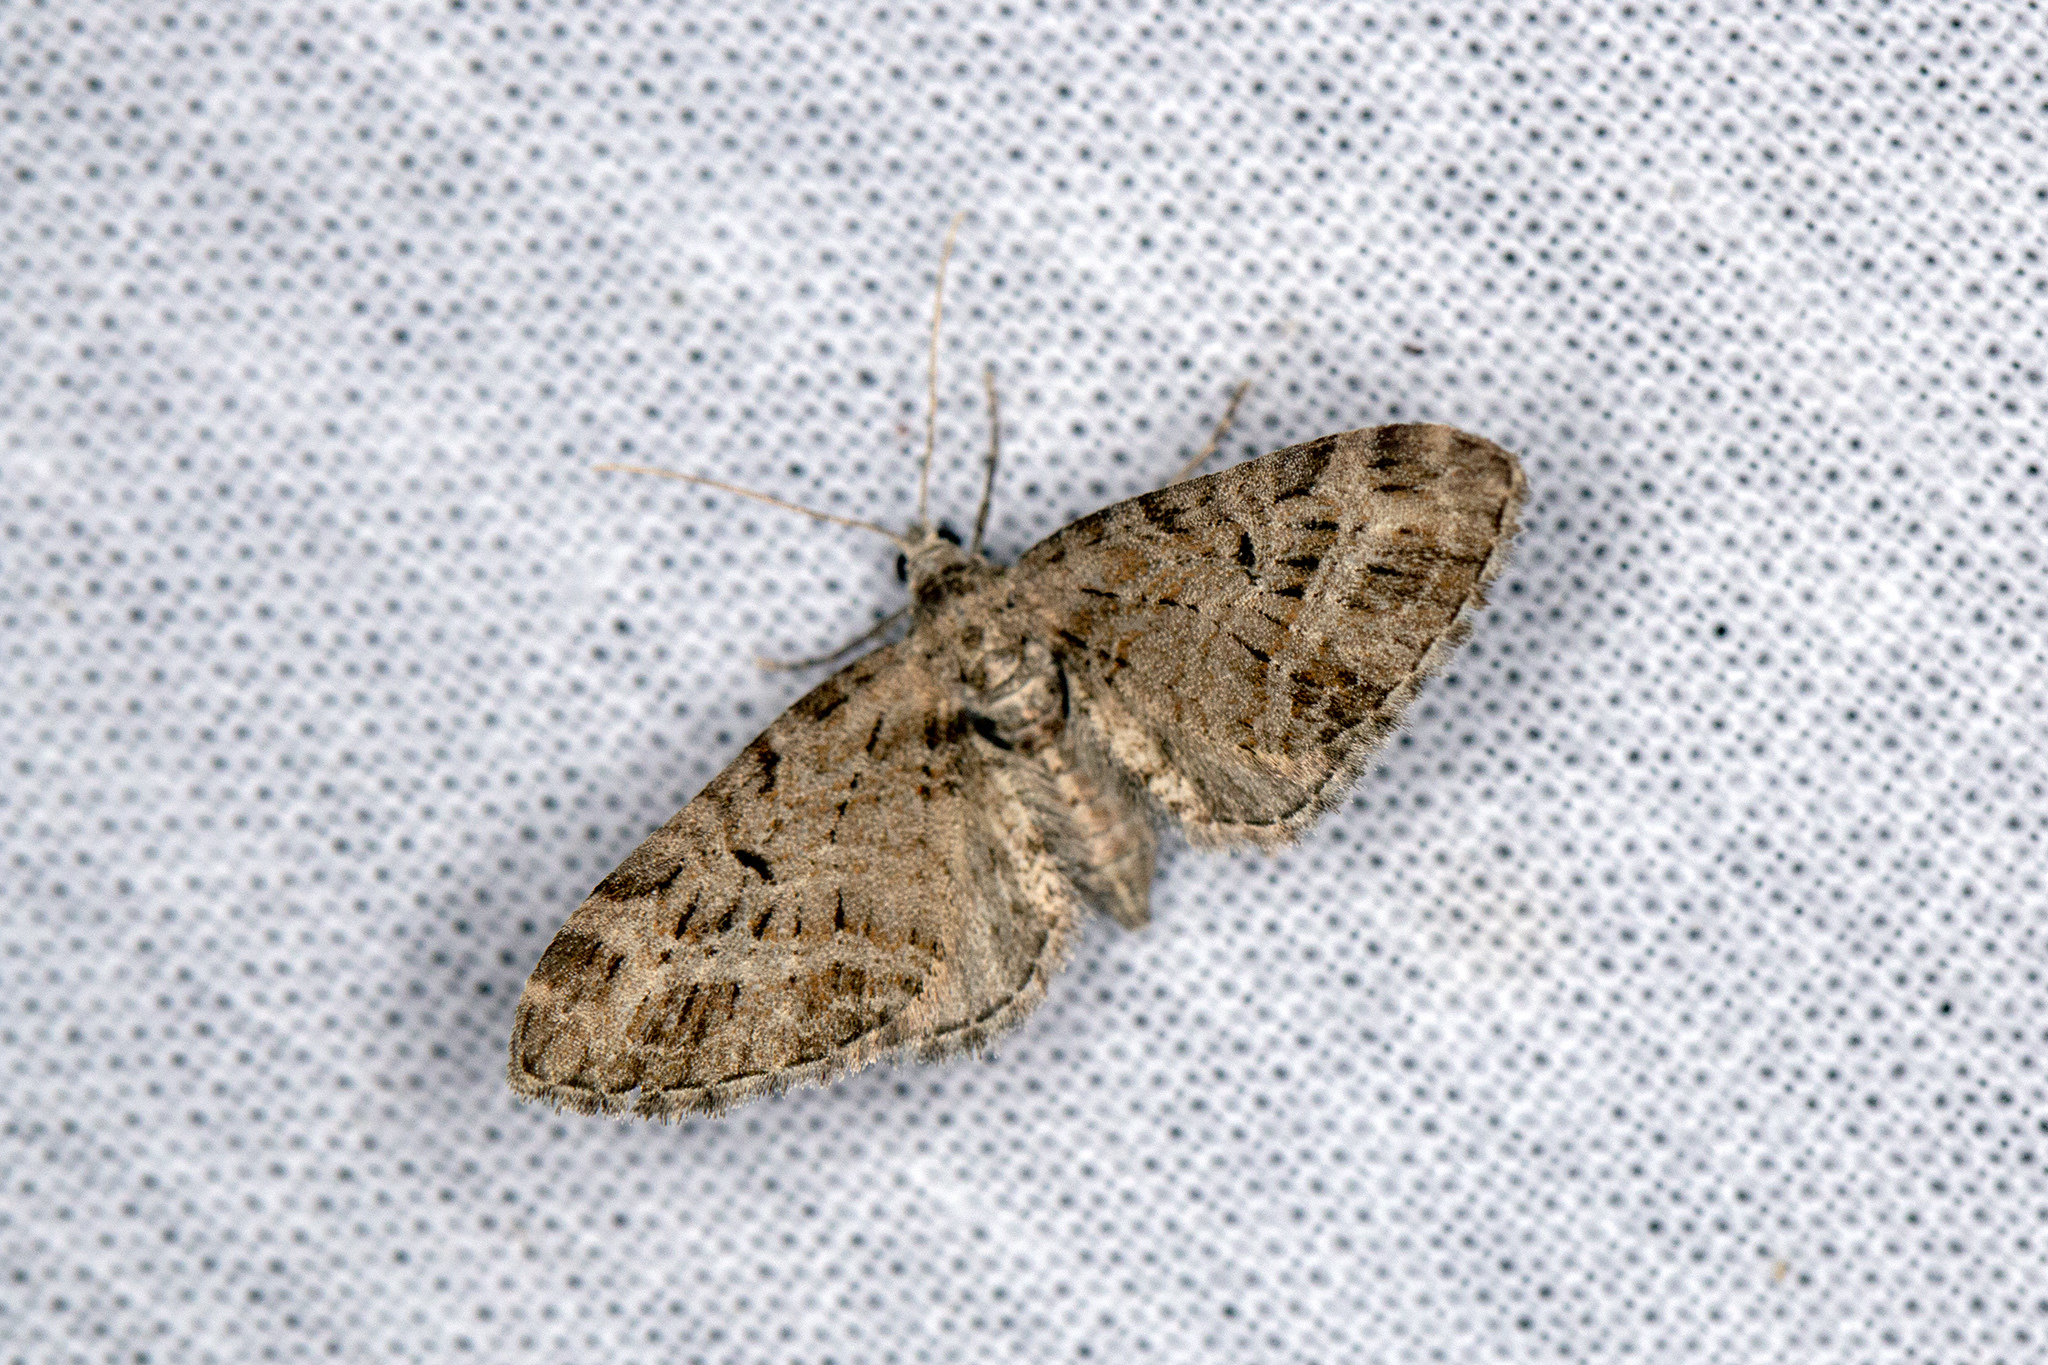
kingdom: Animalia
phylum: Arthropoda
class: Insecta
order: Lepidoptera
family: Geometridae
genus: Eupithecia
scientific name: Eupithecia exiguata
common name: Mottled pug
